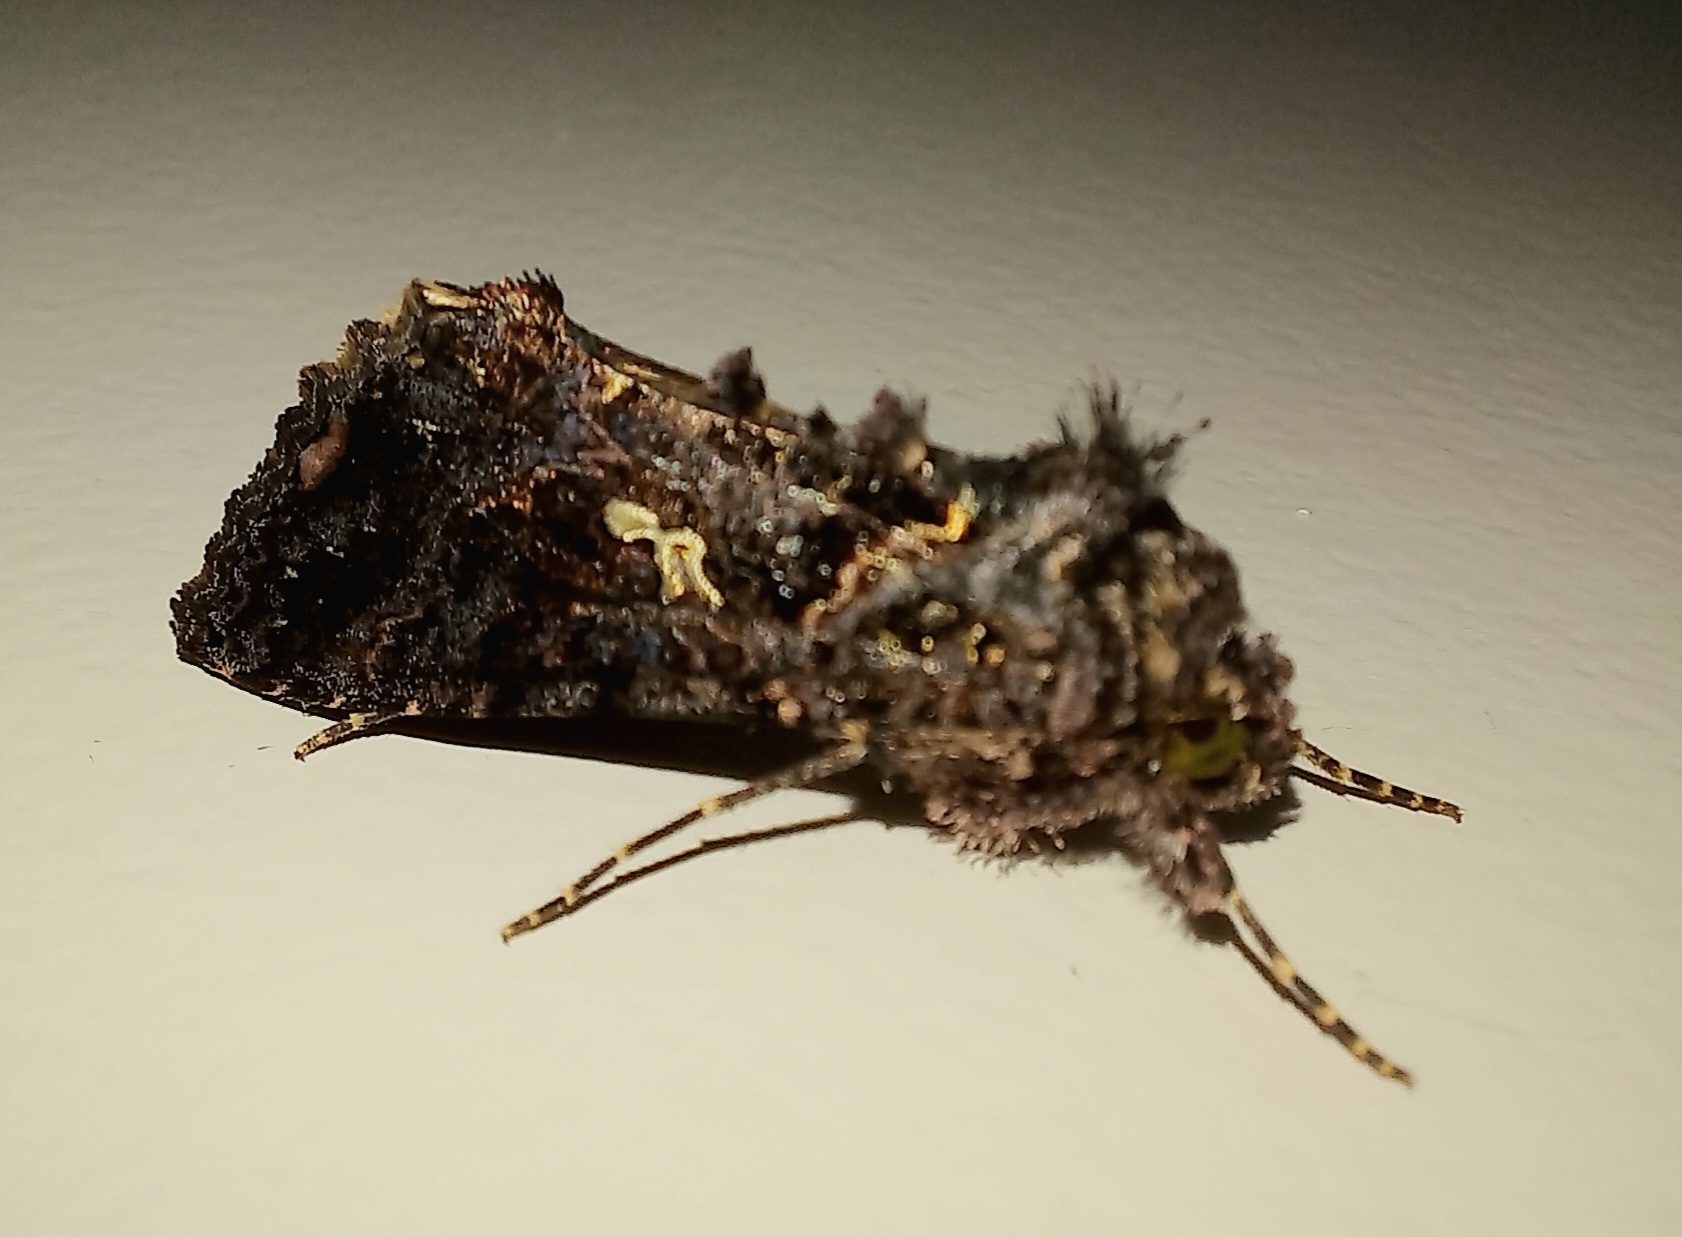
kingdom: Animalia
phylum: Arthropoda
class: Insecta
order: Lepidoptera
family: Noctuidae
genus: Ctenoplusia
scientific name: Ctenoplusia limbirena
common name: Scar bank gem
